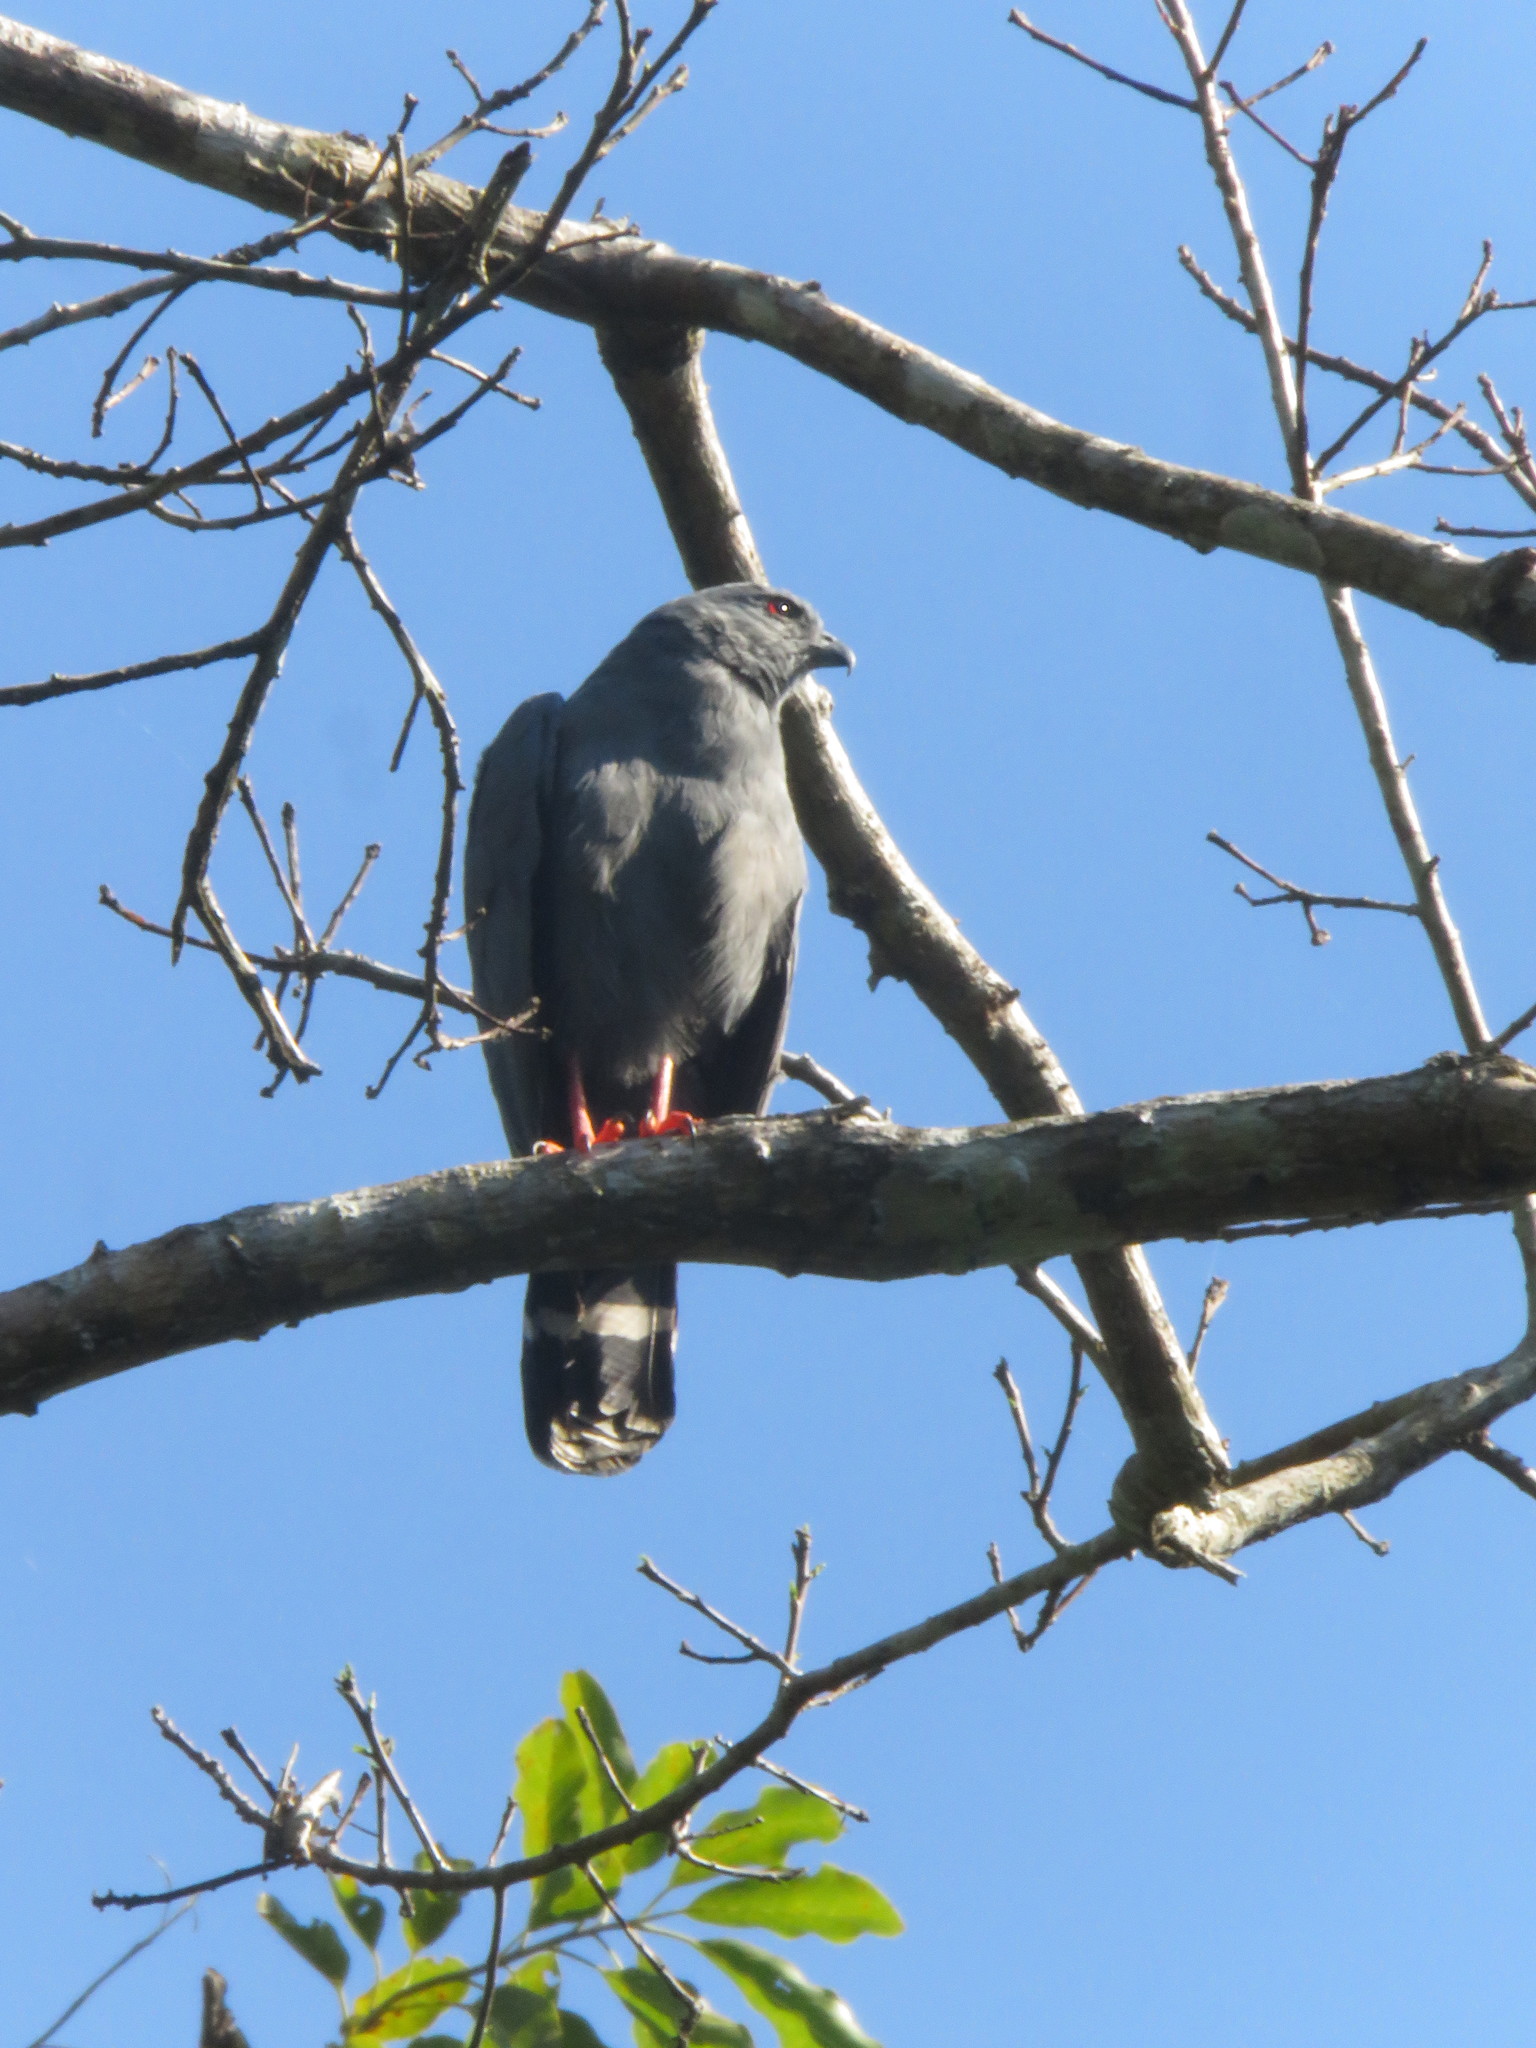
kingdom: Animalia
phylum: Chordata
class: Aves
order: Accipitriformes
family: Accipitridae
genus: Geranospiza
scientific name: Geranospiza caerulescens
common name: Crane hawk
